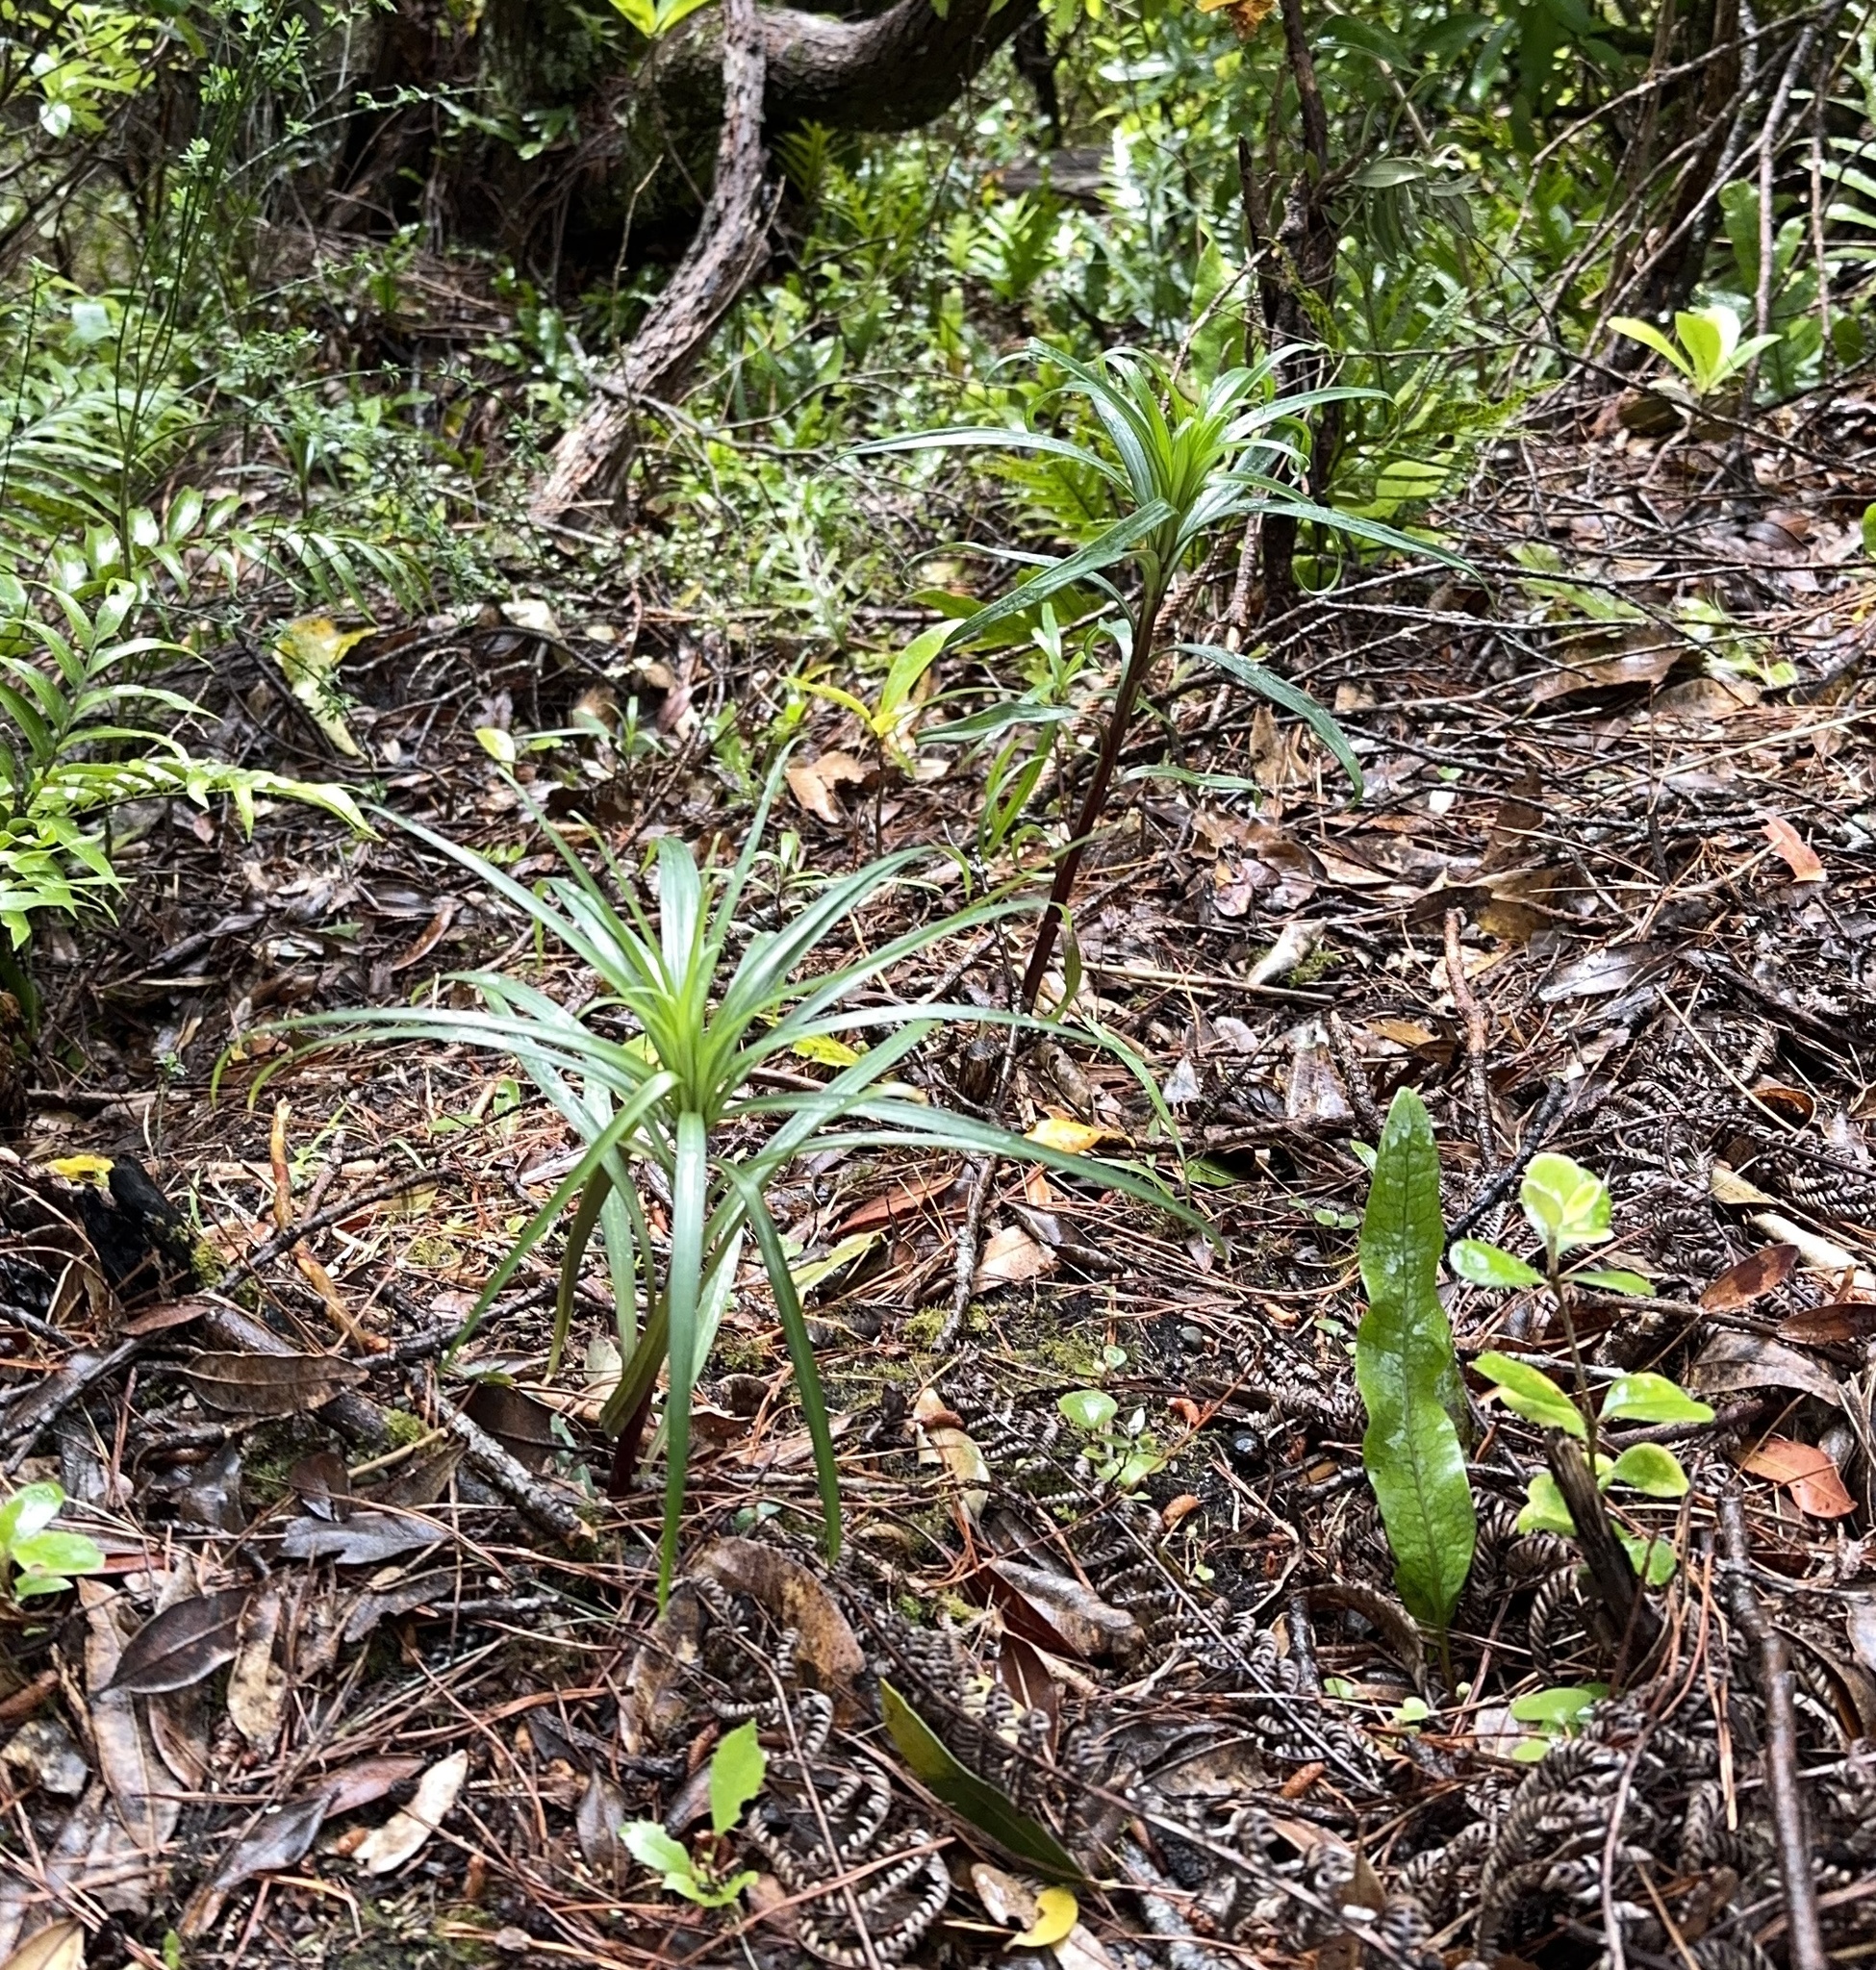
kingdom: Plantae
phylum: Tracheophyta
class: Liliopsida
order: Liliales
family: Liliaceae
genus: Lilium
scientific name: Lilium formosanum
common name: Formosa lily
